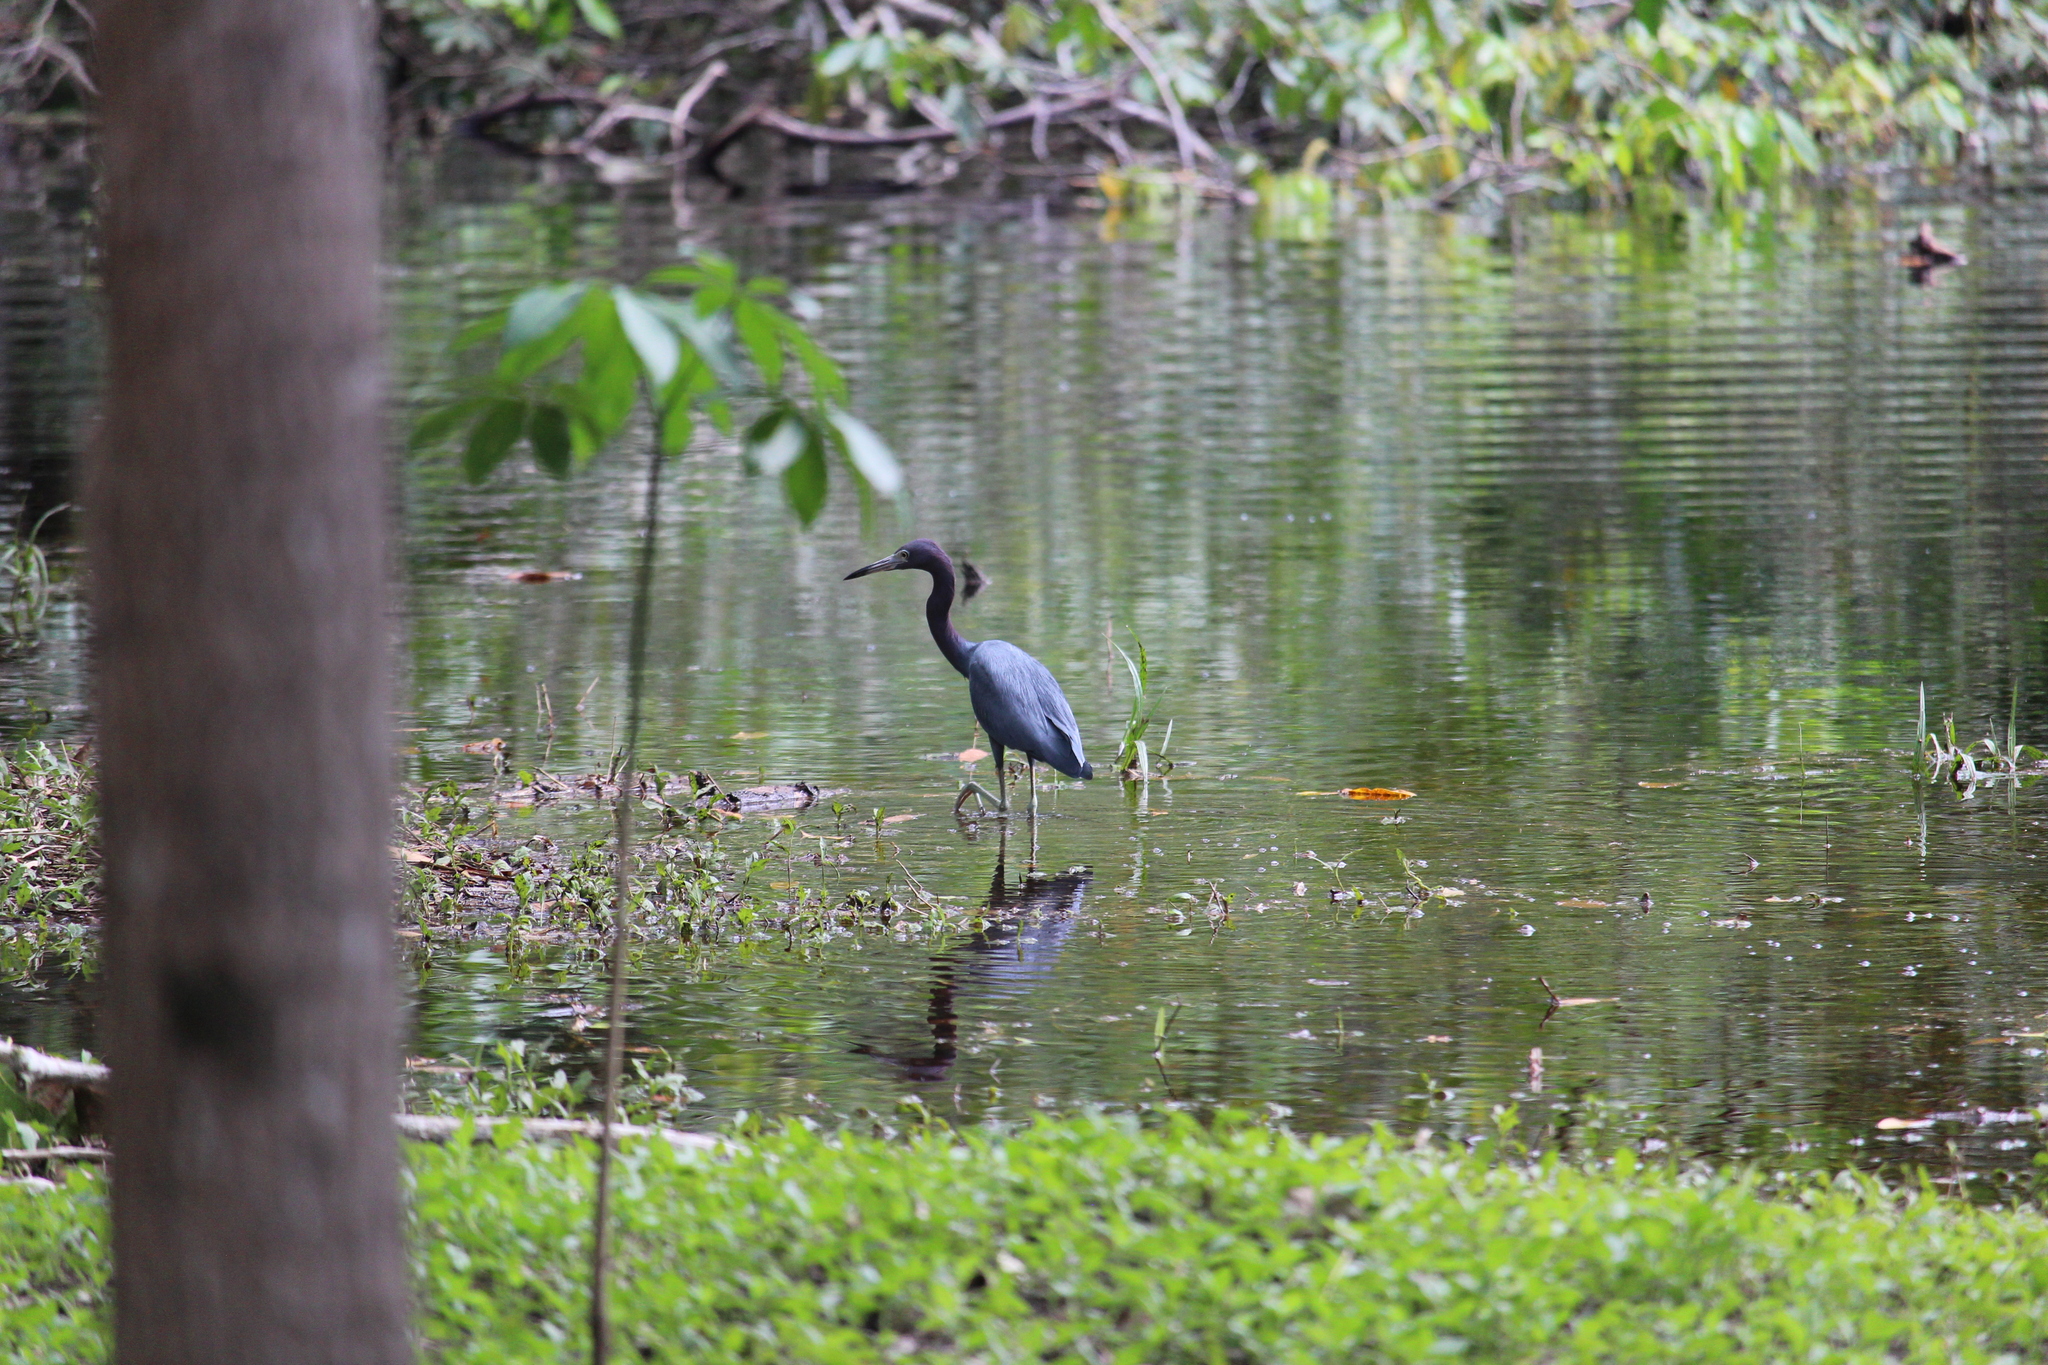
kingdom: Animalia
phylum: Chordata
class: Aves
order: Pelecaniformes
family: Ardeidae
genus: Egretta
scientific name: Egretta caerulea
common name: Little blue heron
